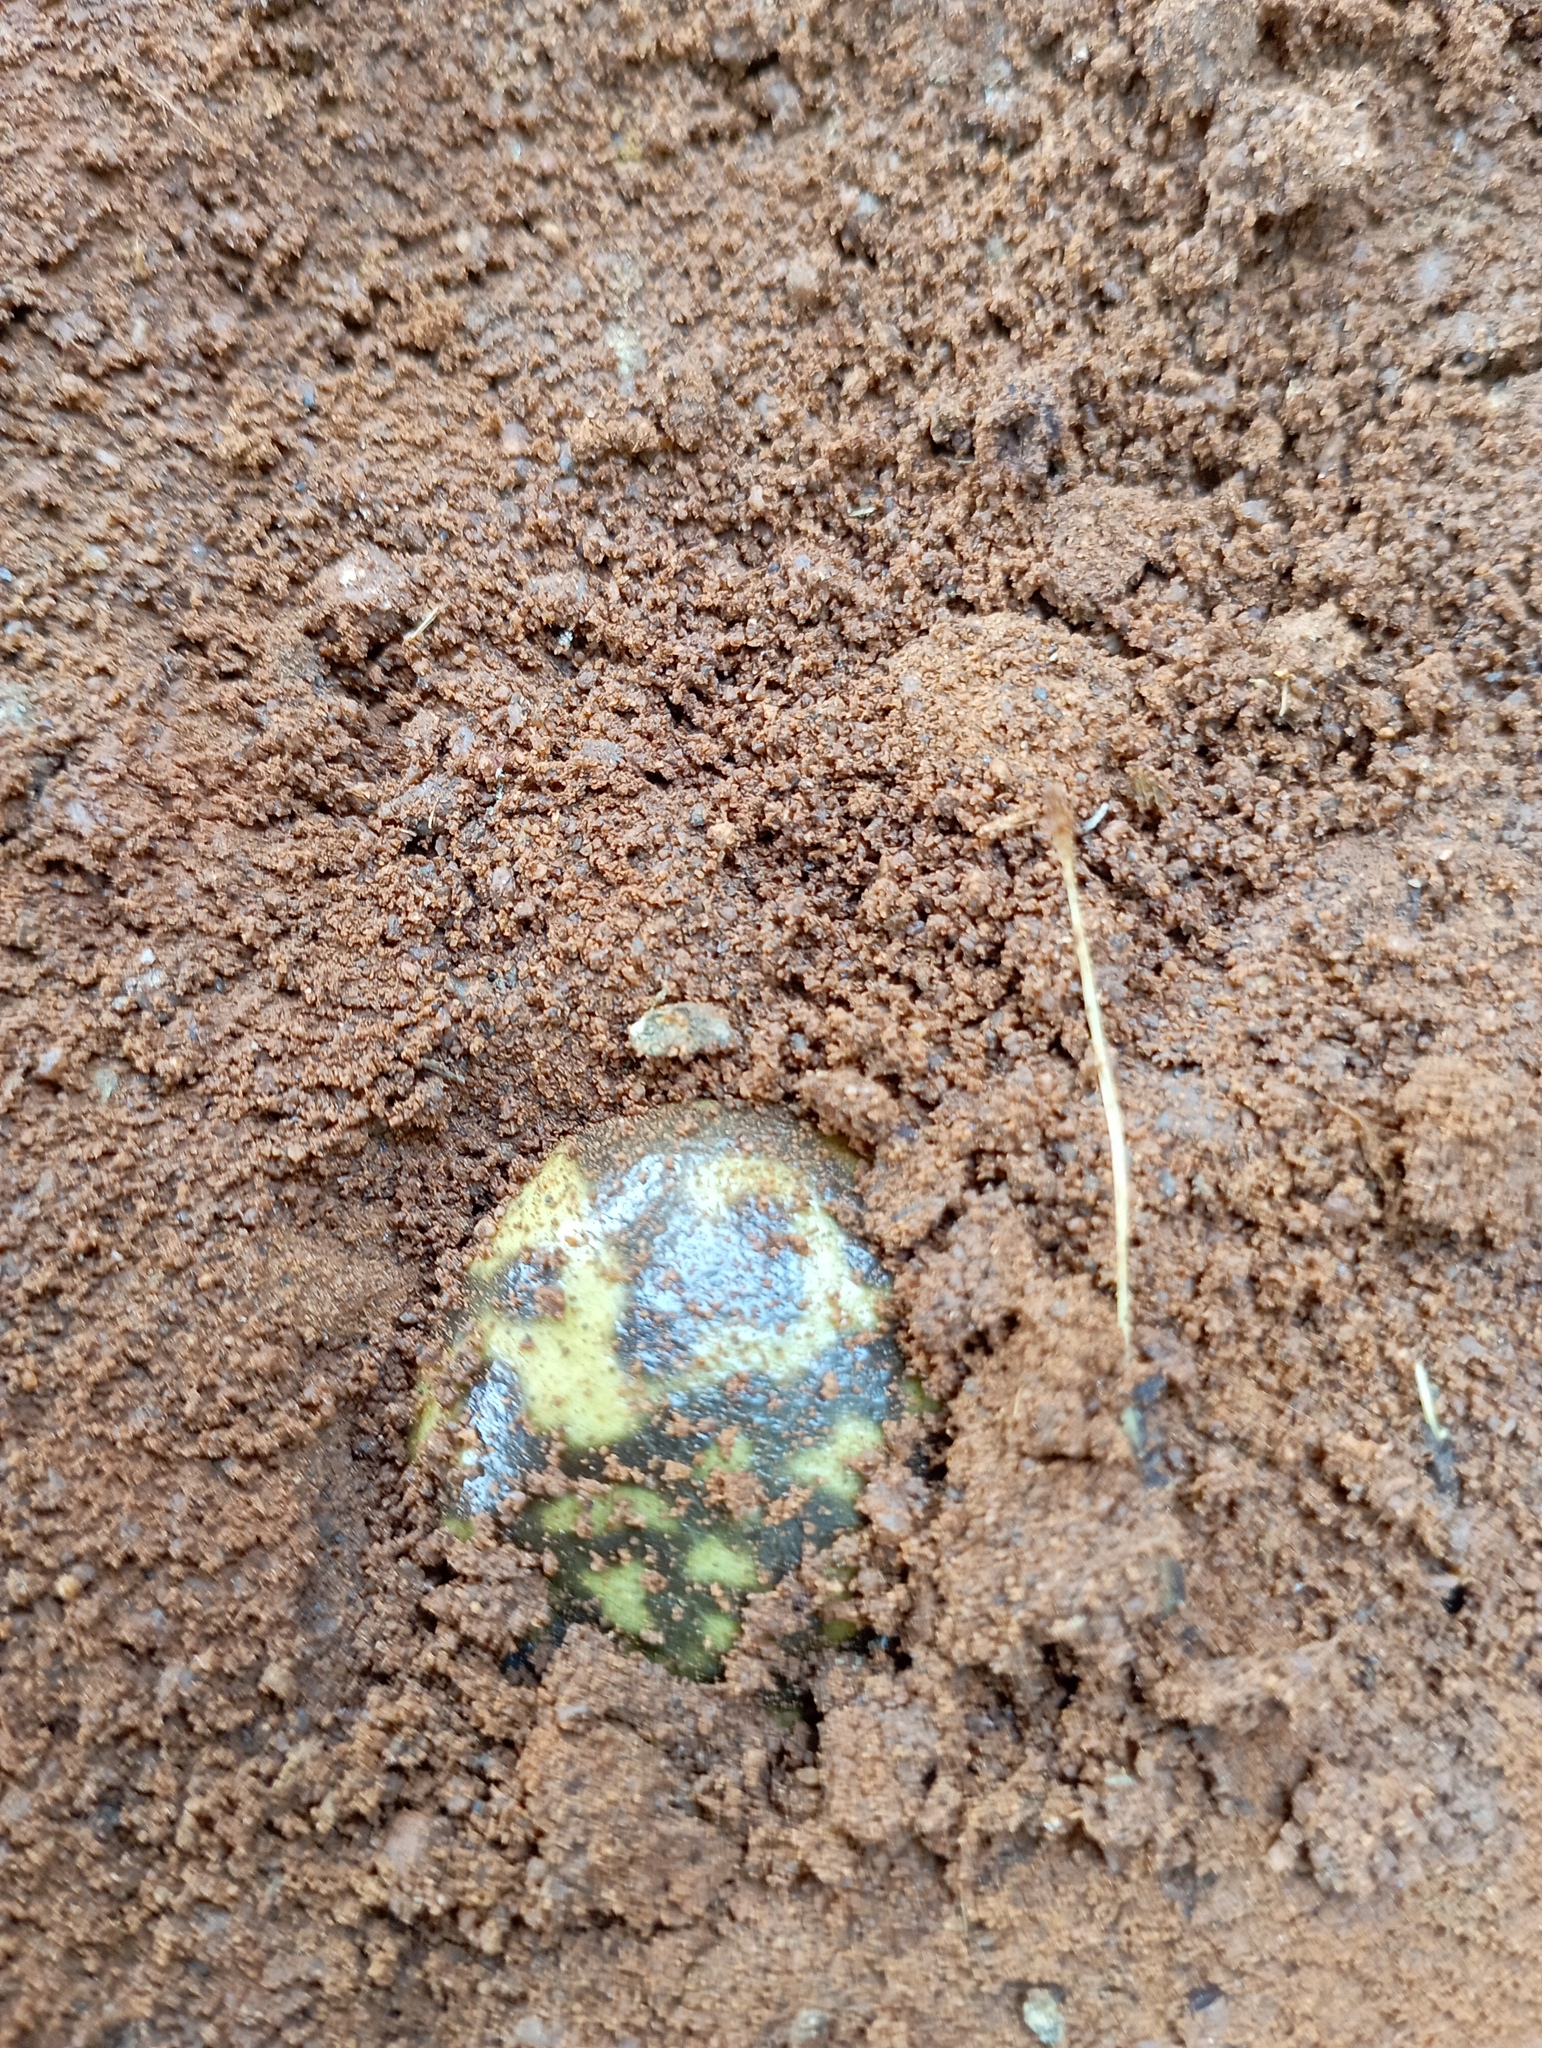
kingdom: Animalia
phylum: Chordata
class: Amphibia
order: Anura
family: Microhylidae
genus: Uperodon
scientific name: Uperodon systoma
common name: Balloon frog
